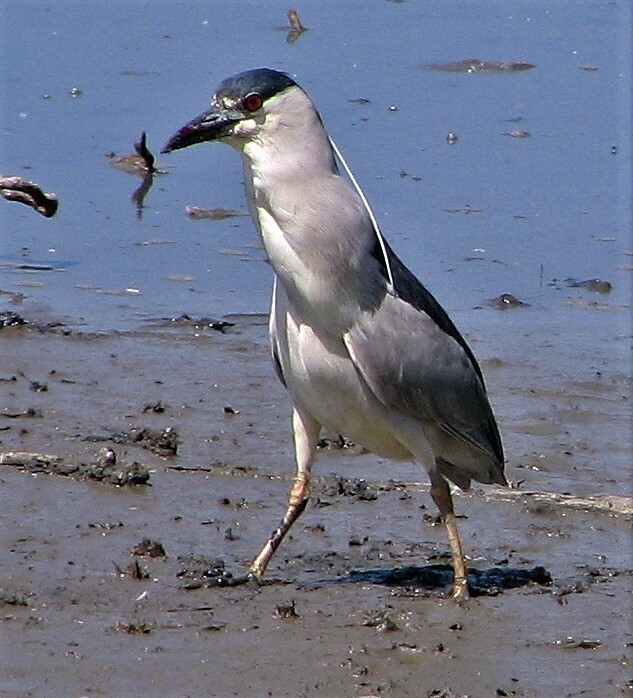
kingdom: Animalia
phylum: Chordata
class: Aves
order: Pelecaniformes
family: Ardeidae
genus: Nycticorax
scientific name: Nycticorax nycticorax
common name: Black-crowned night heron
